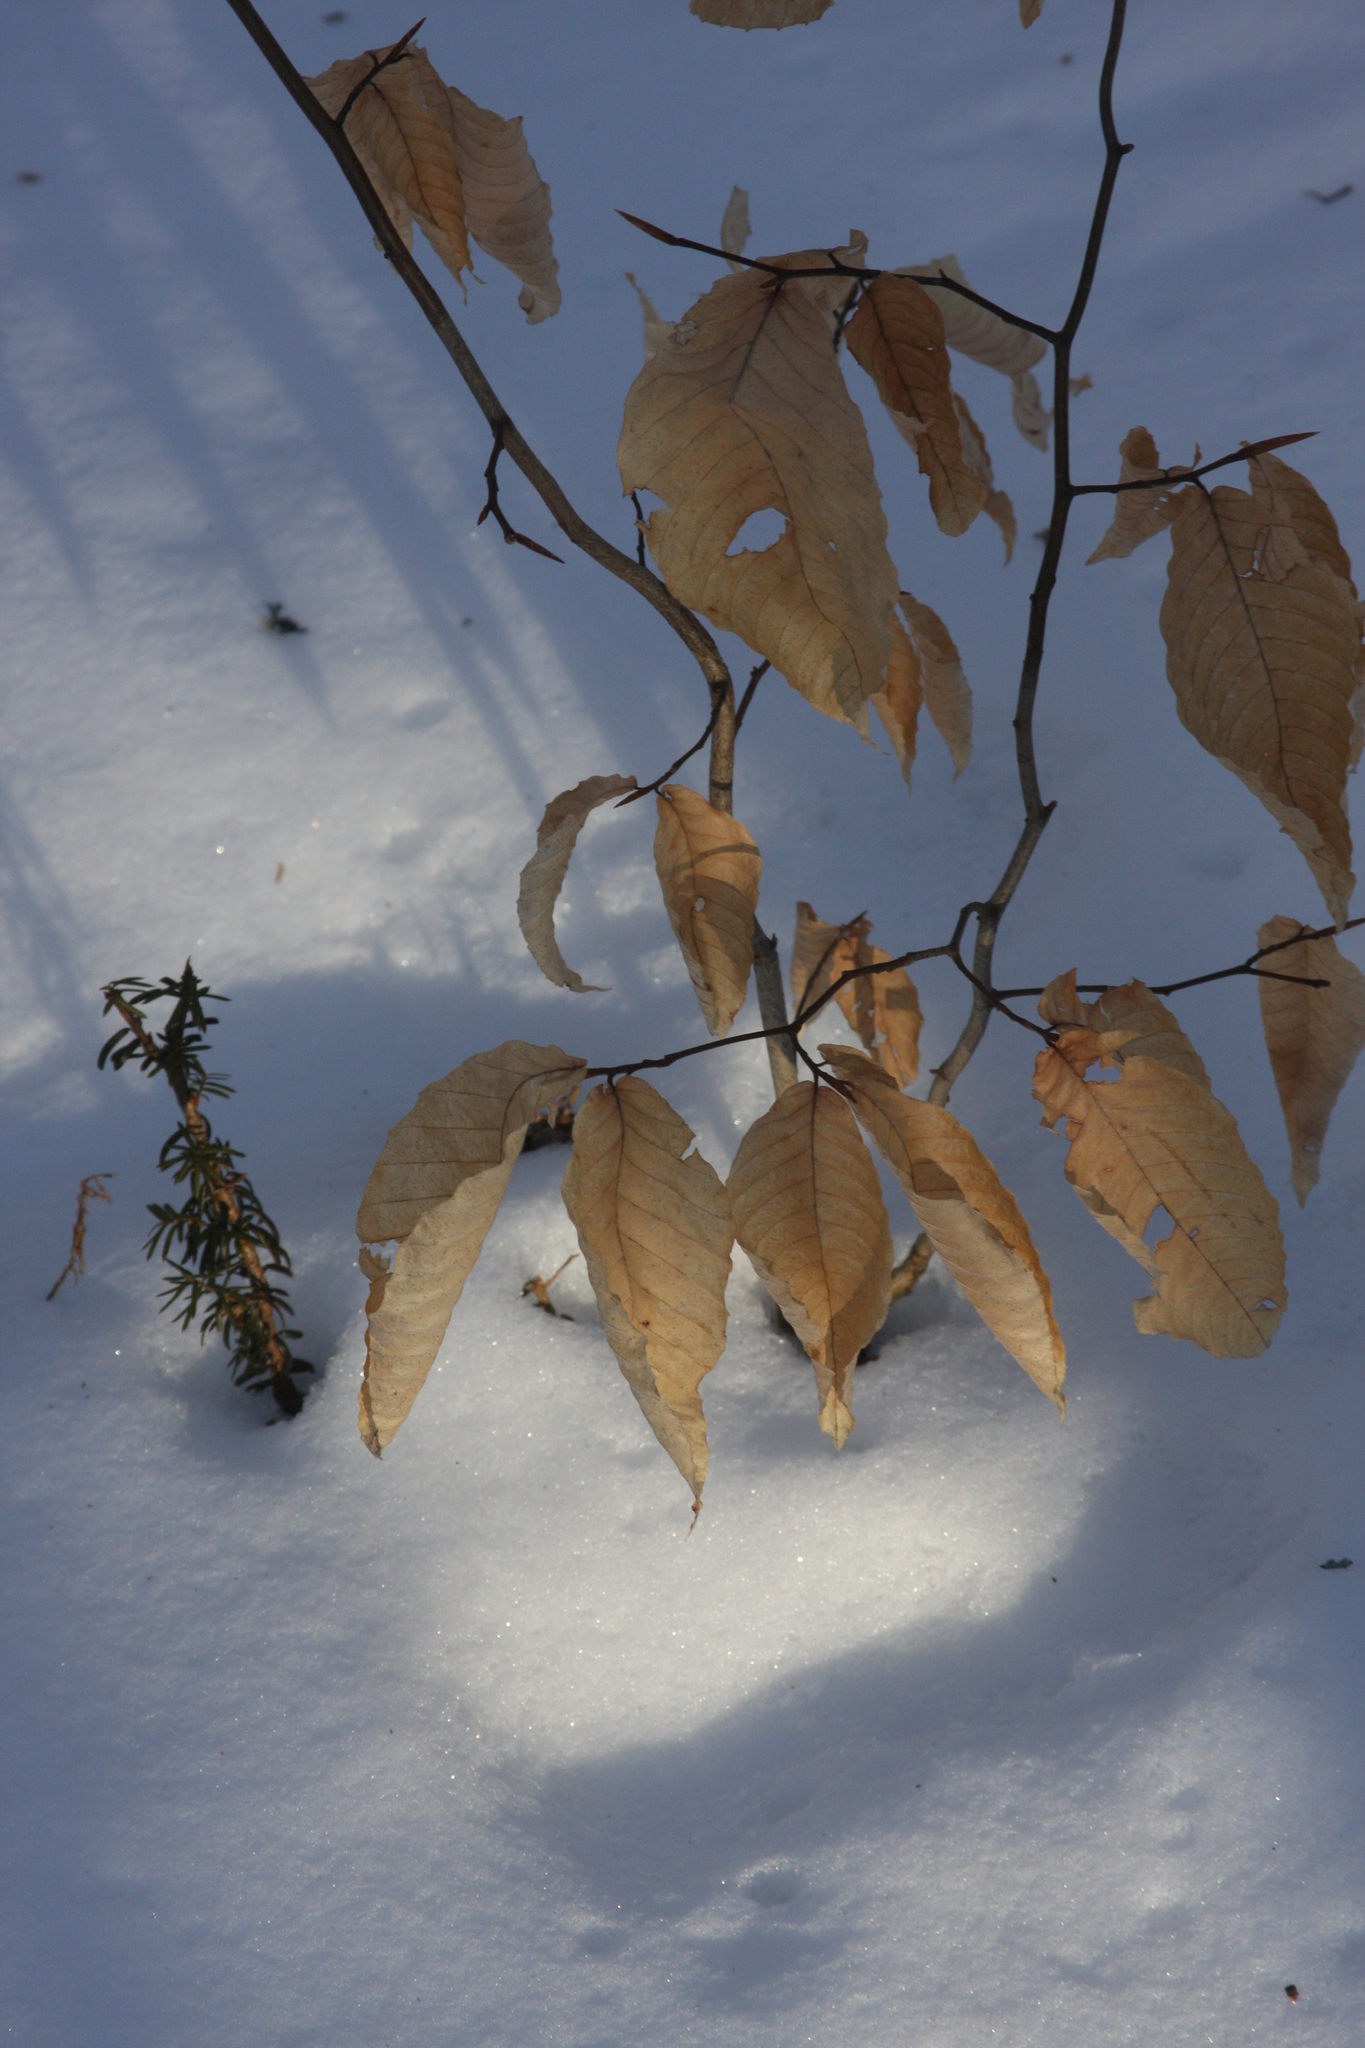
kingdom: Plantae
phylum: Tracheophyta
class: Magnoliopsida
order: Fagales
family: Fagaceae
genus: Fagus
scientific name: Fagus grandifolia
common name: American beech
